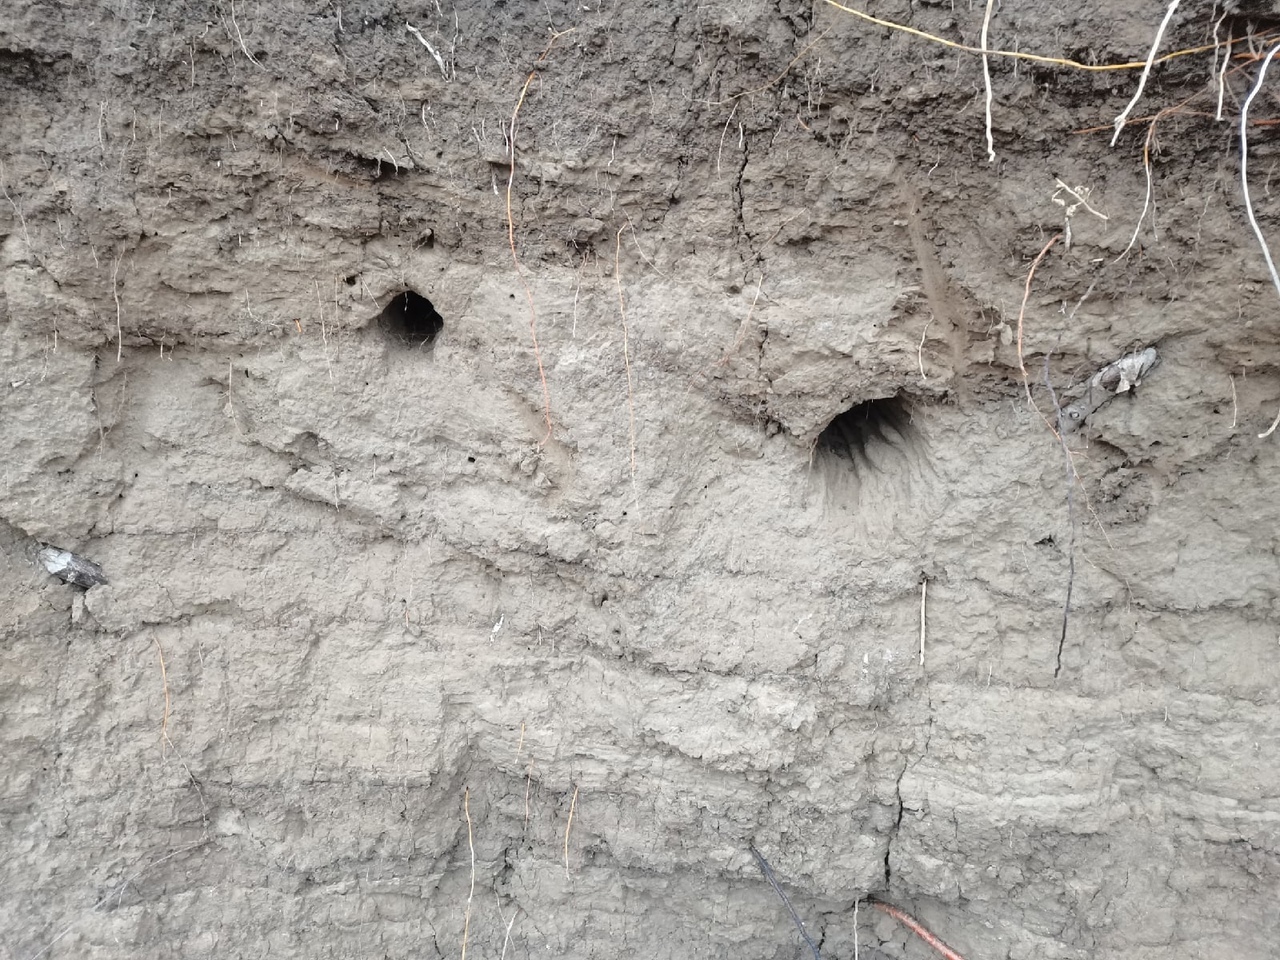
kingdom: Animalia
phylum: Chordata
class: Aves
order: Coraciiformes
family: Alcedinidae
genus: Alcedo
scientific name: Alcedo atthis
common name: Common kingfisher
